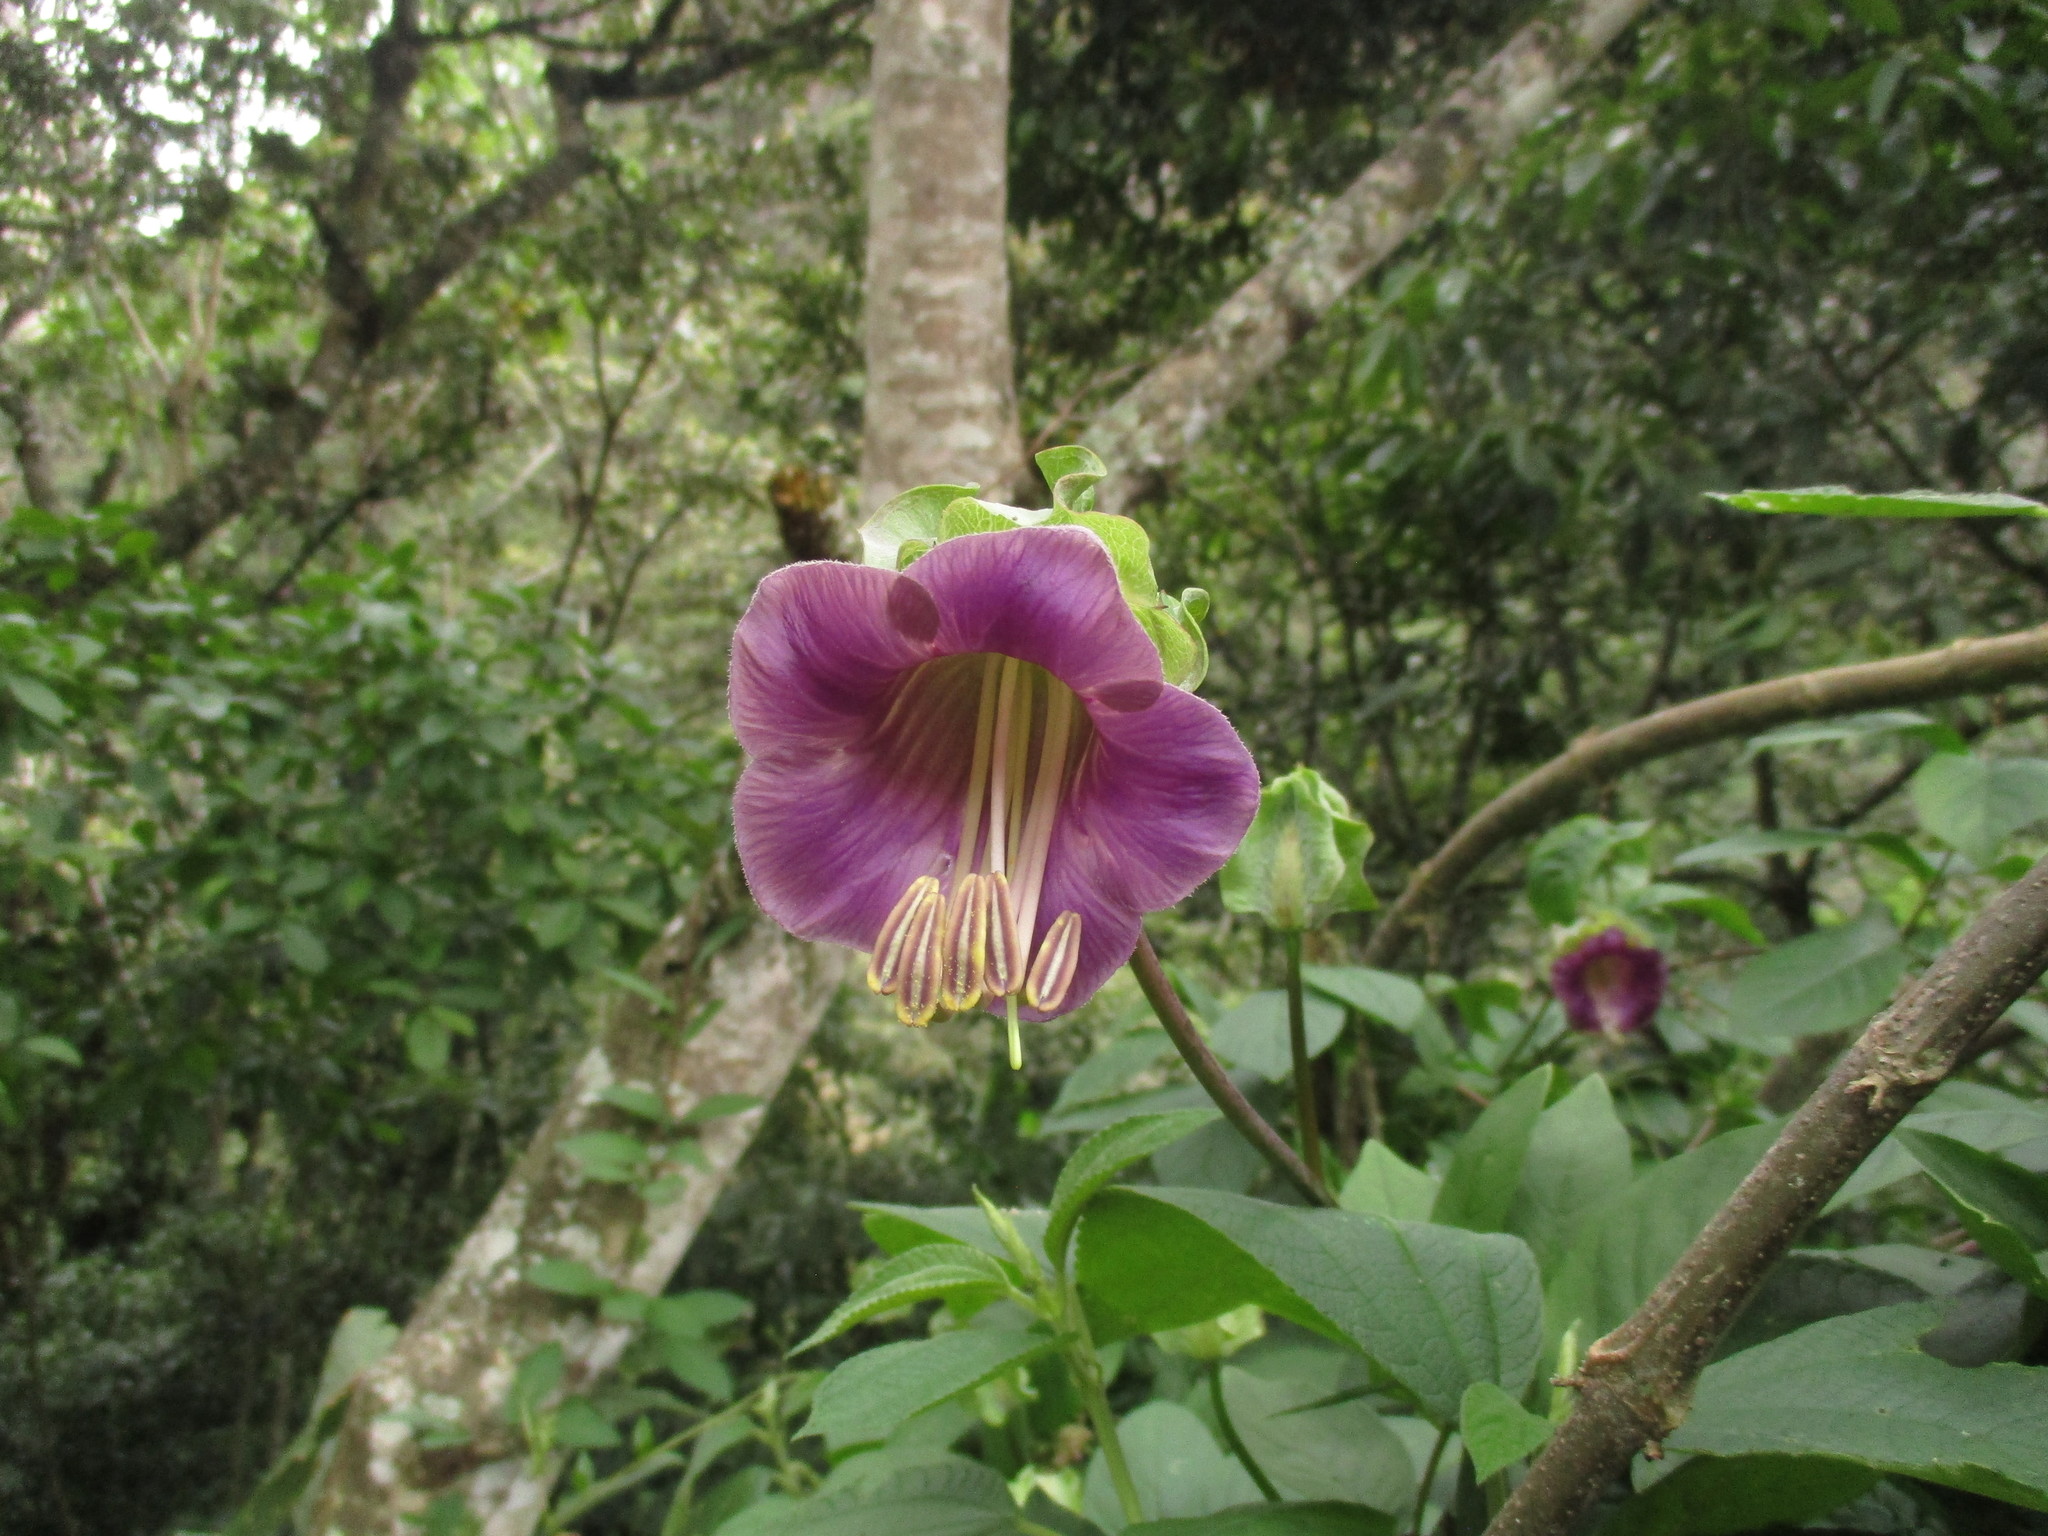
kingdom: Plantae
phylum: Tracheophyta
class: Magnoliopsida
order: Ericales
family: Polemoniaceae
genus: Cobaea
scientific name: Cobaea scandens
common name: Cup-and-saucer-vine
